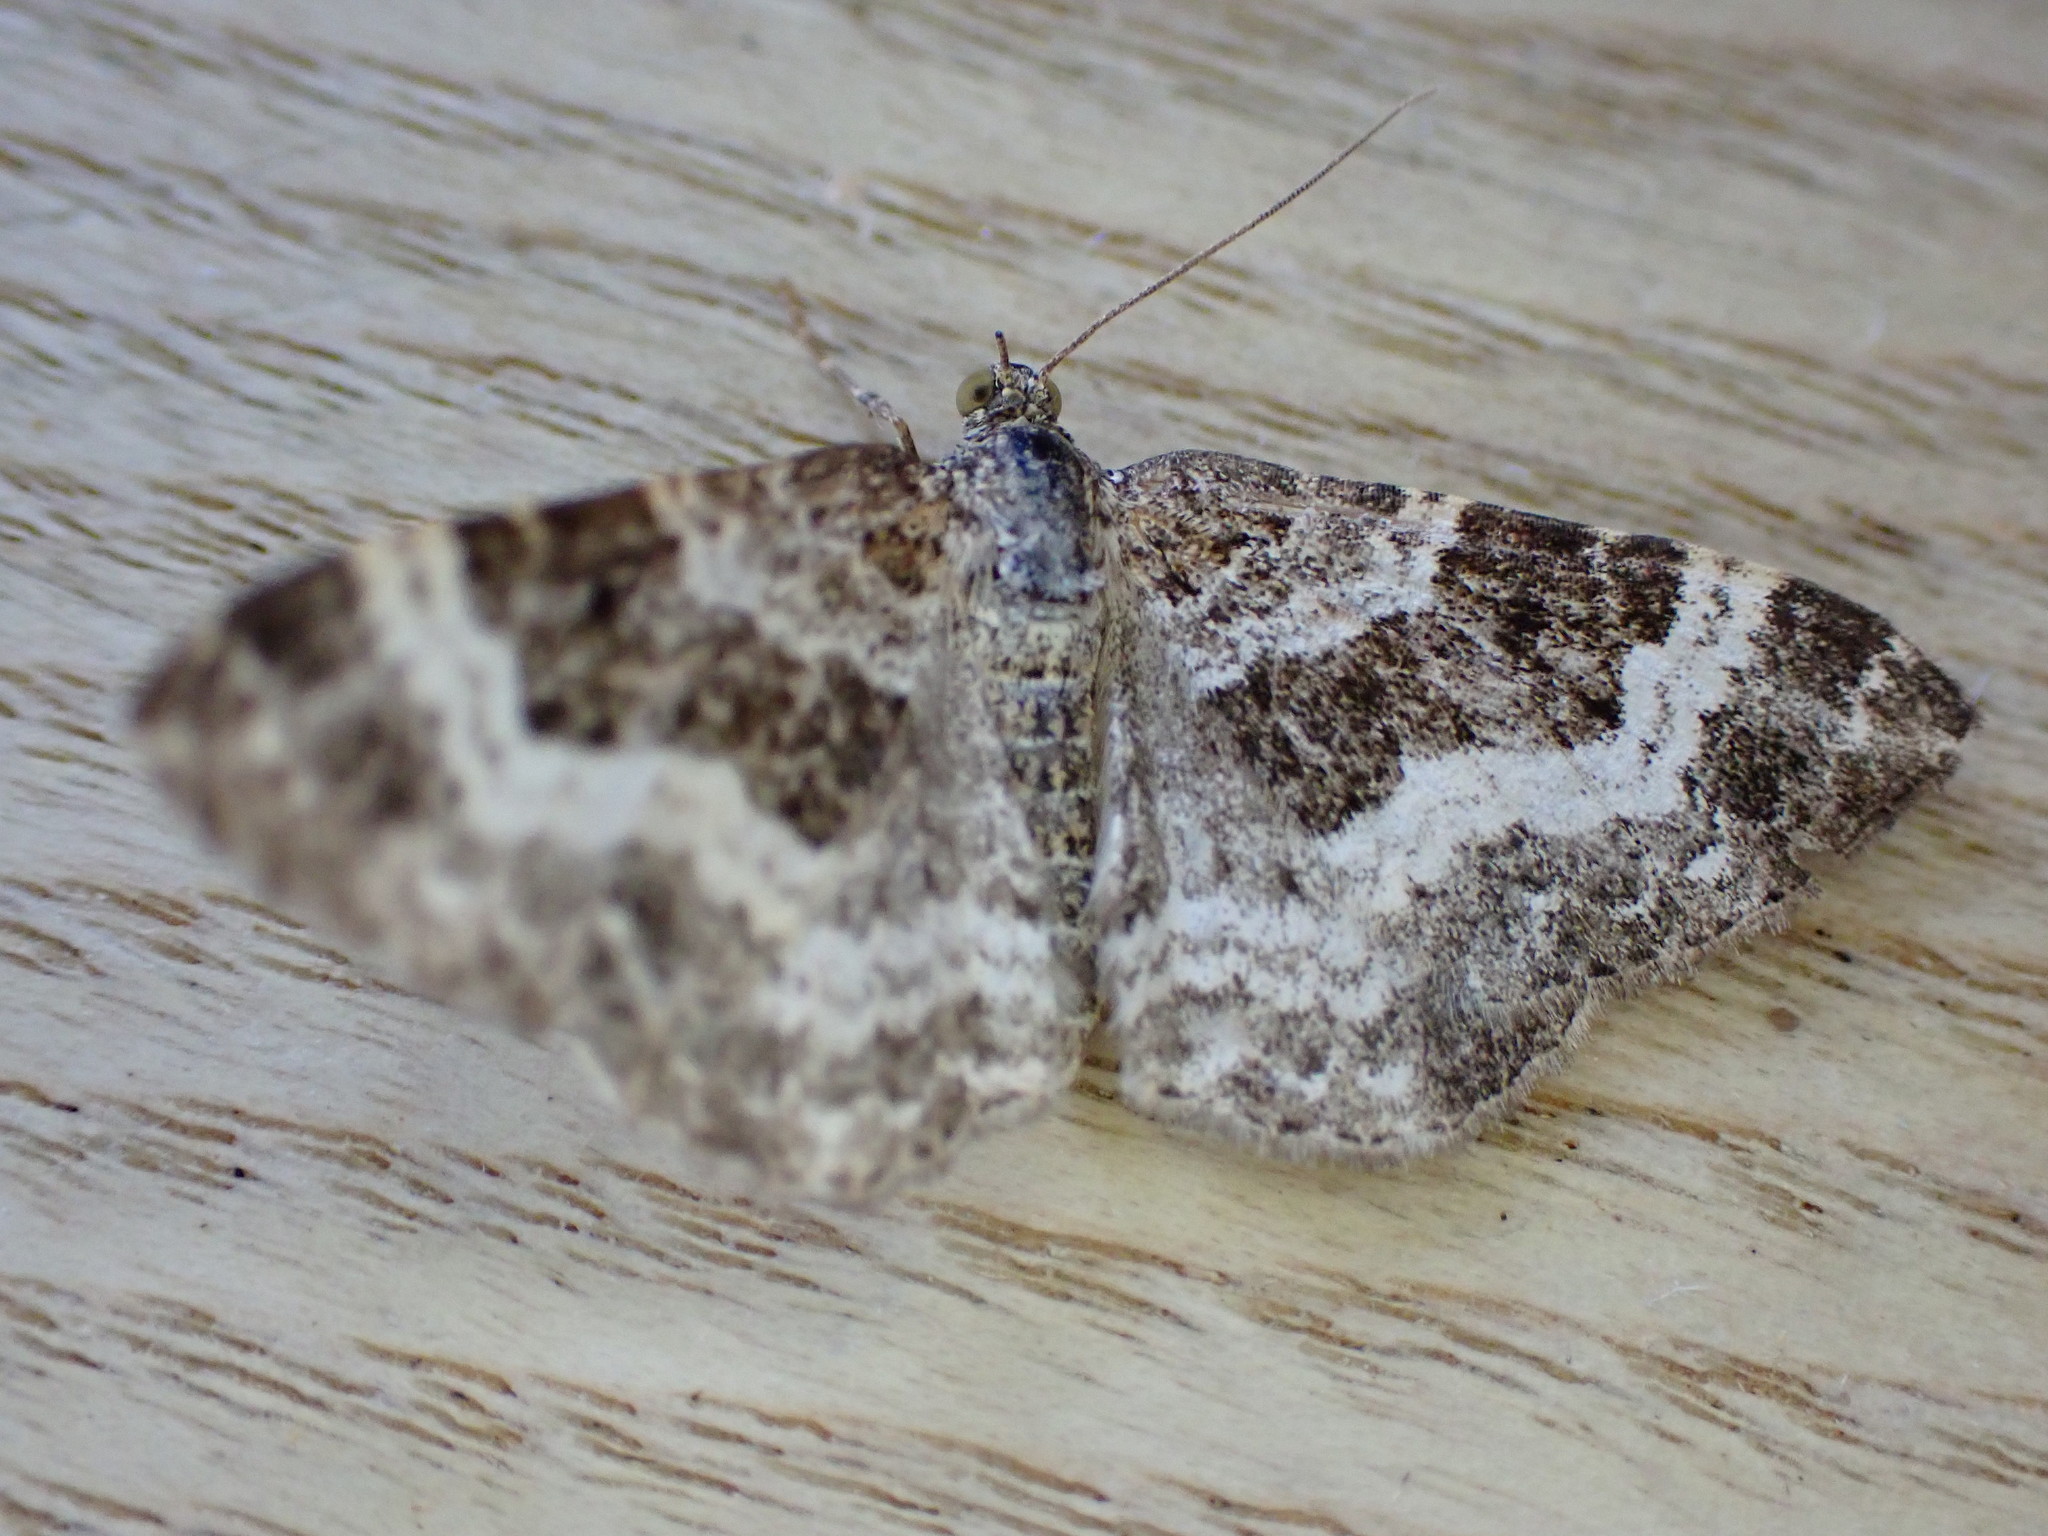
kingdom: Animalia
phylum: Arthropoda
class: Insecta
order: Lepidoptera
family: Geometridae
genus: Epirrhoe
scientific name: Epirrhoe alternata
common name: Common carpet
